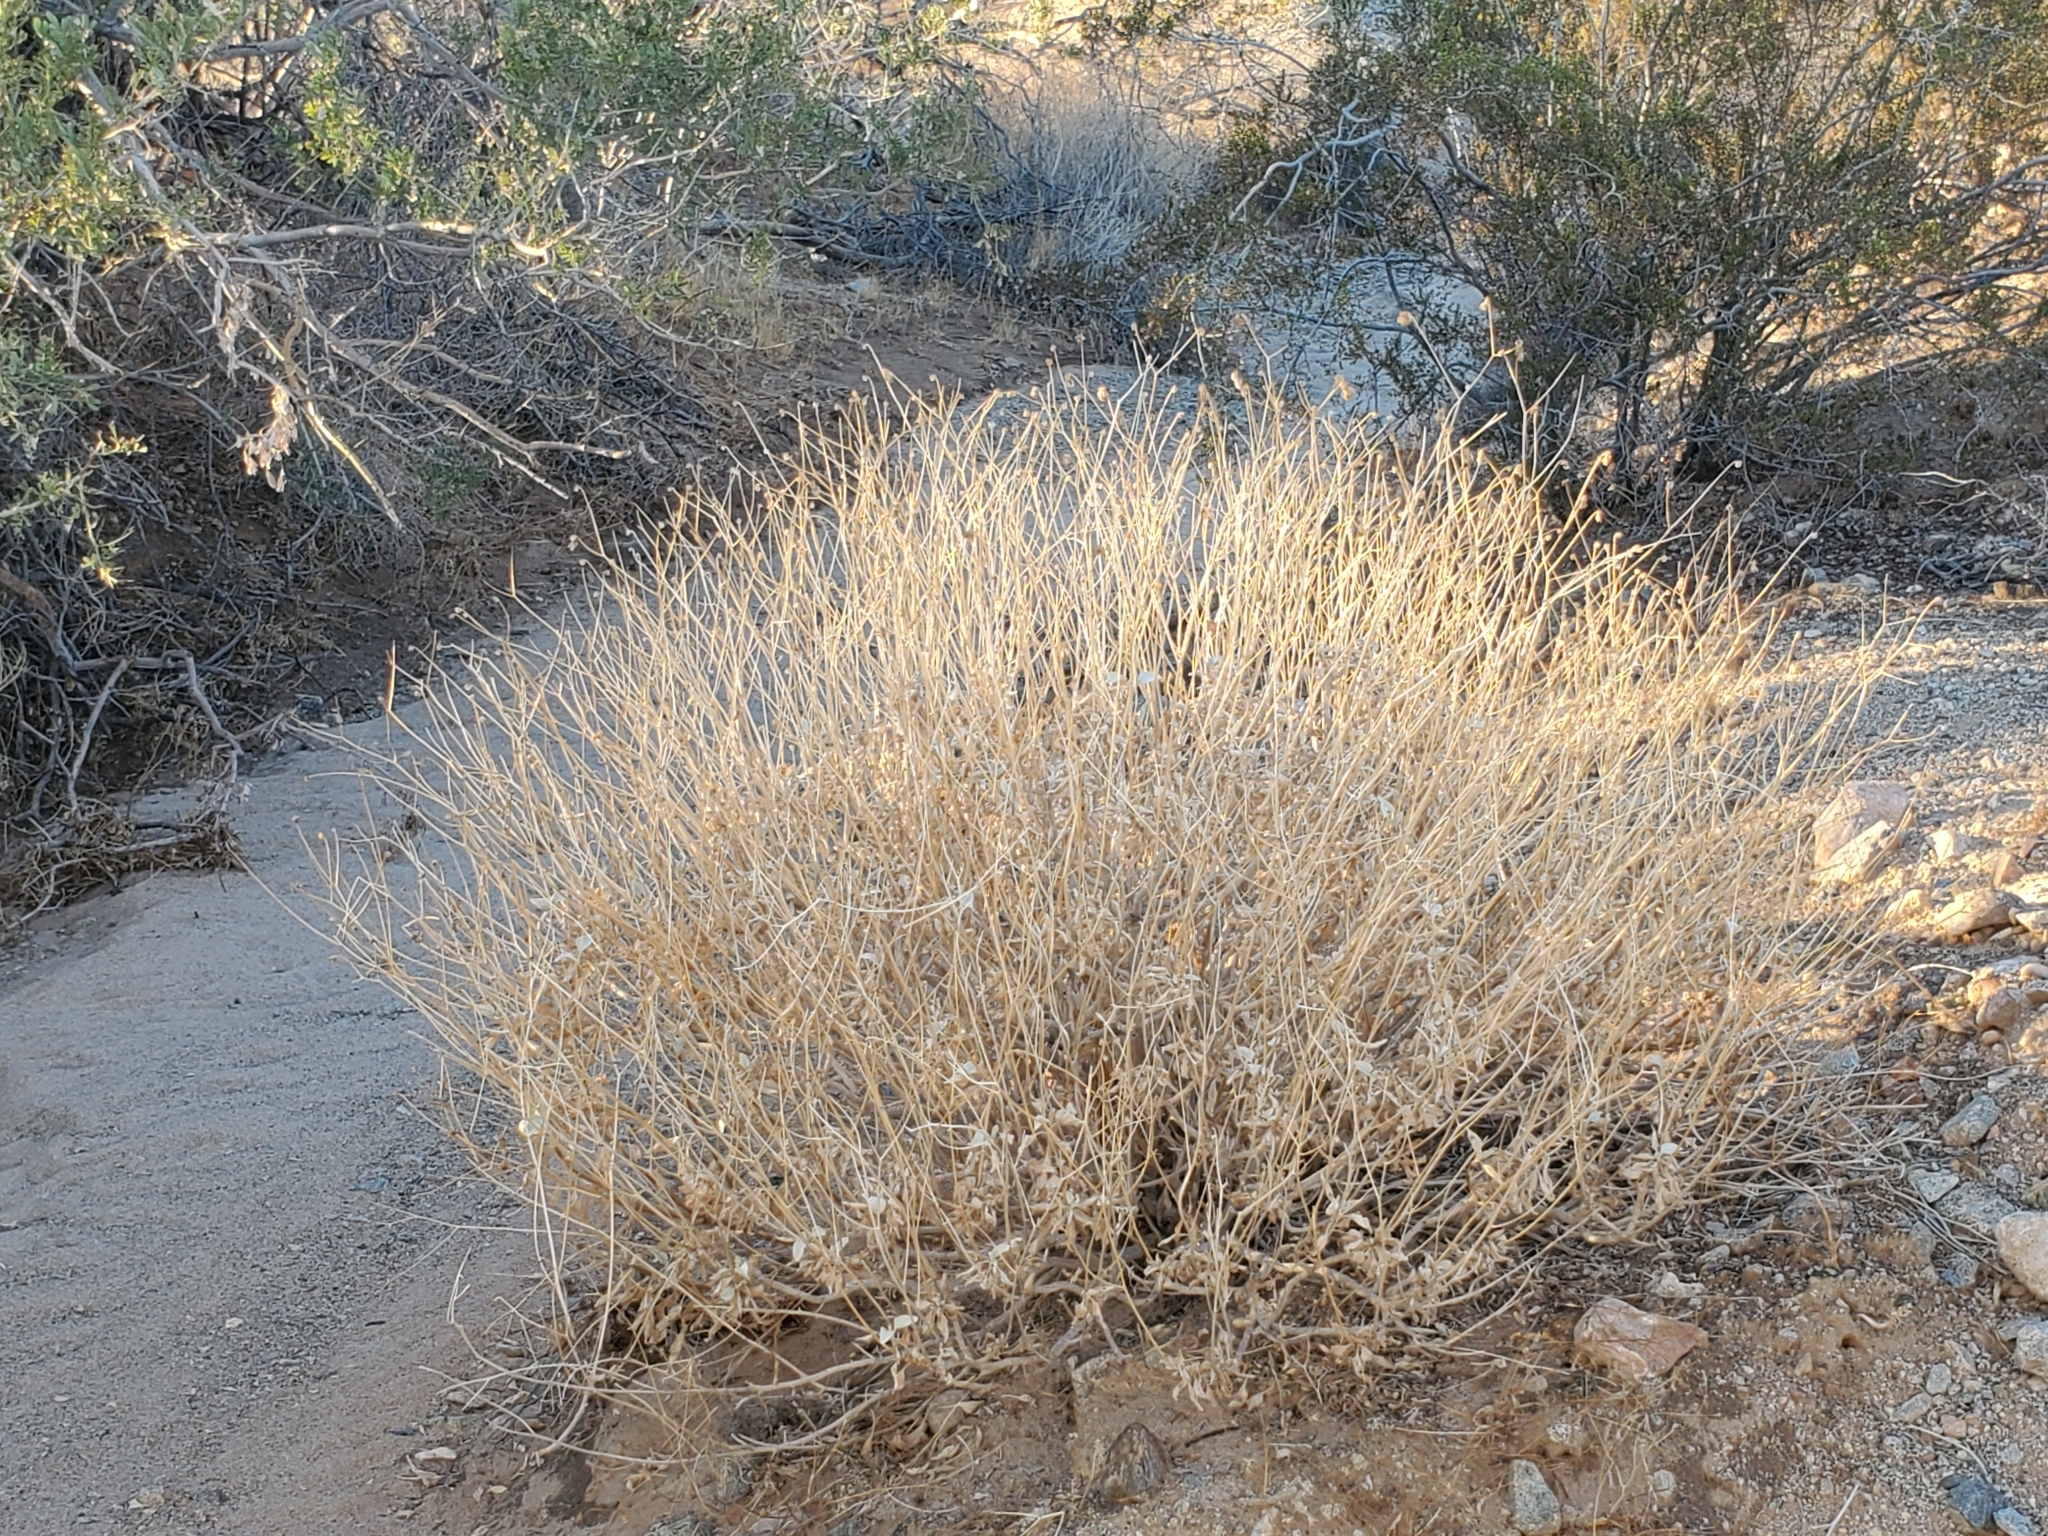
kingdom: Plantae
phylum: Tracheophyta
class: Magnoliopsida
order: Asterales
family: Asteraceae
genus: Encelia
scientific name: Encelia farinosa
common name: Brittlebush
